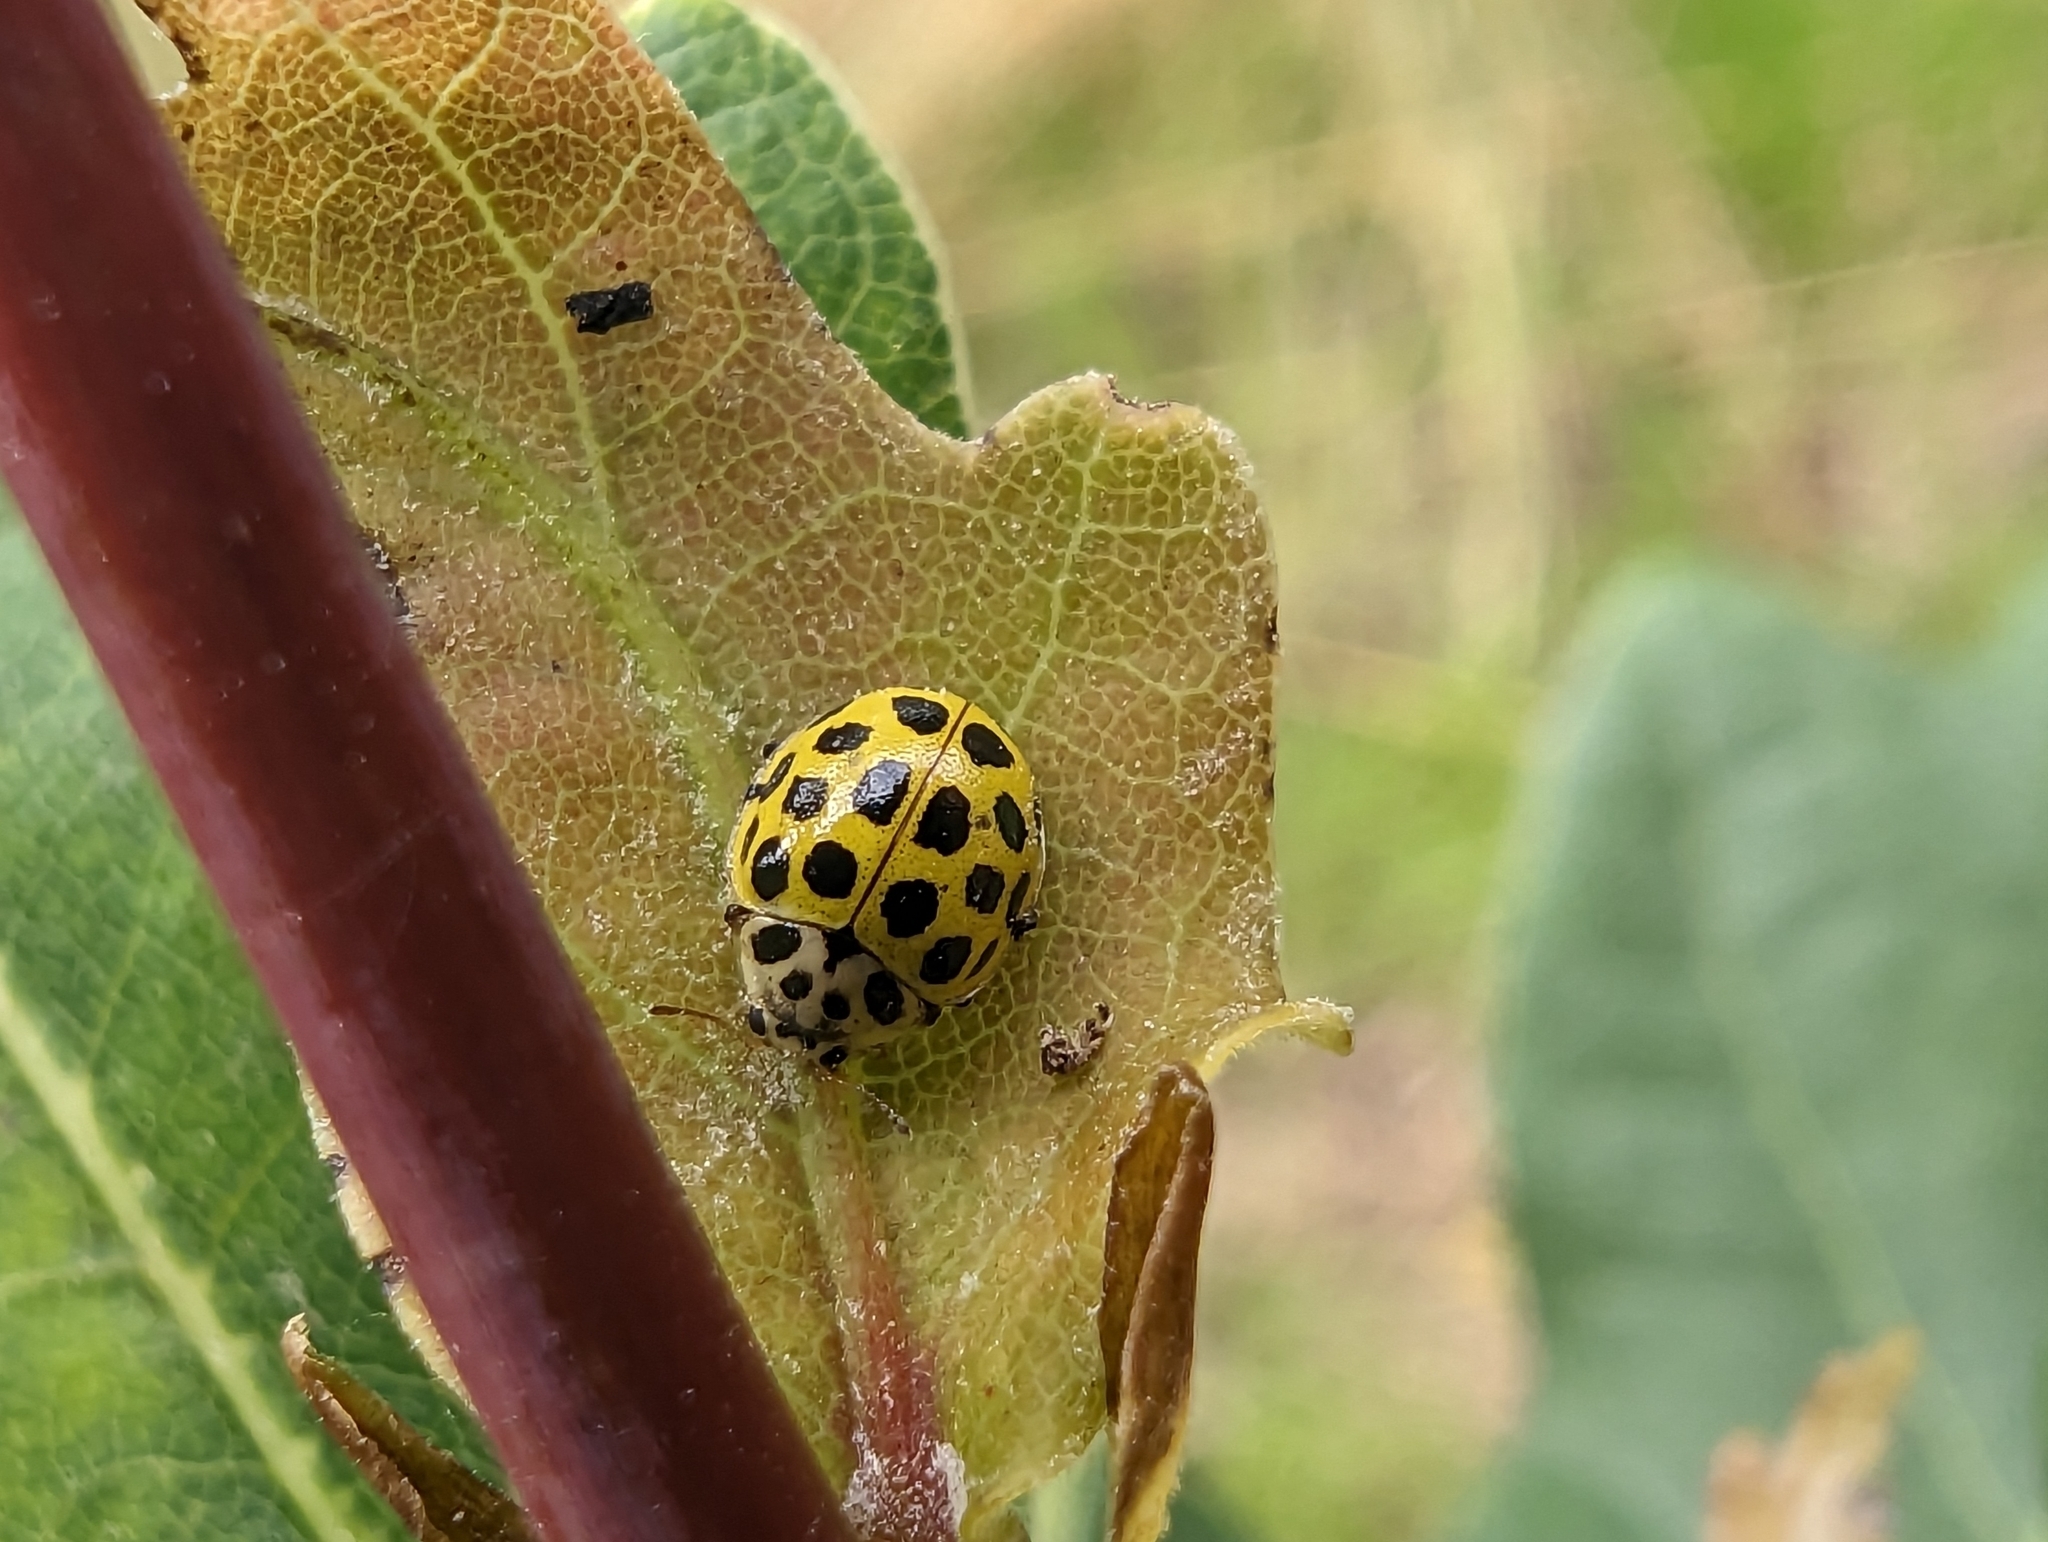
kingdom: Animalia
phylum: Arthropoda
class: Insecta
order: Coleoptera
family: Coccinellidae
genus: Psyllobora
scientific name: Psyllobora vigintiduopunctata
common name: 22-spot ladybird
